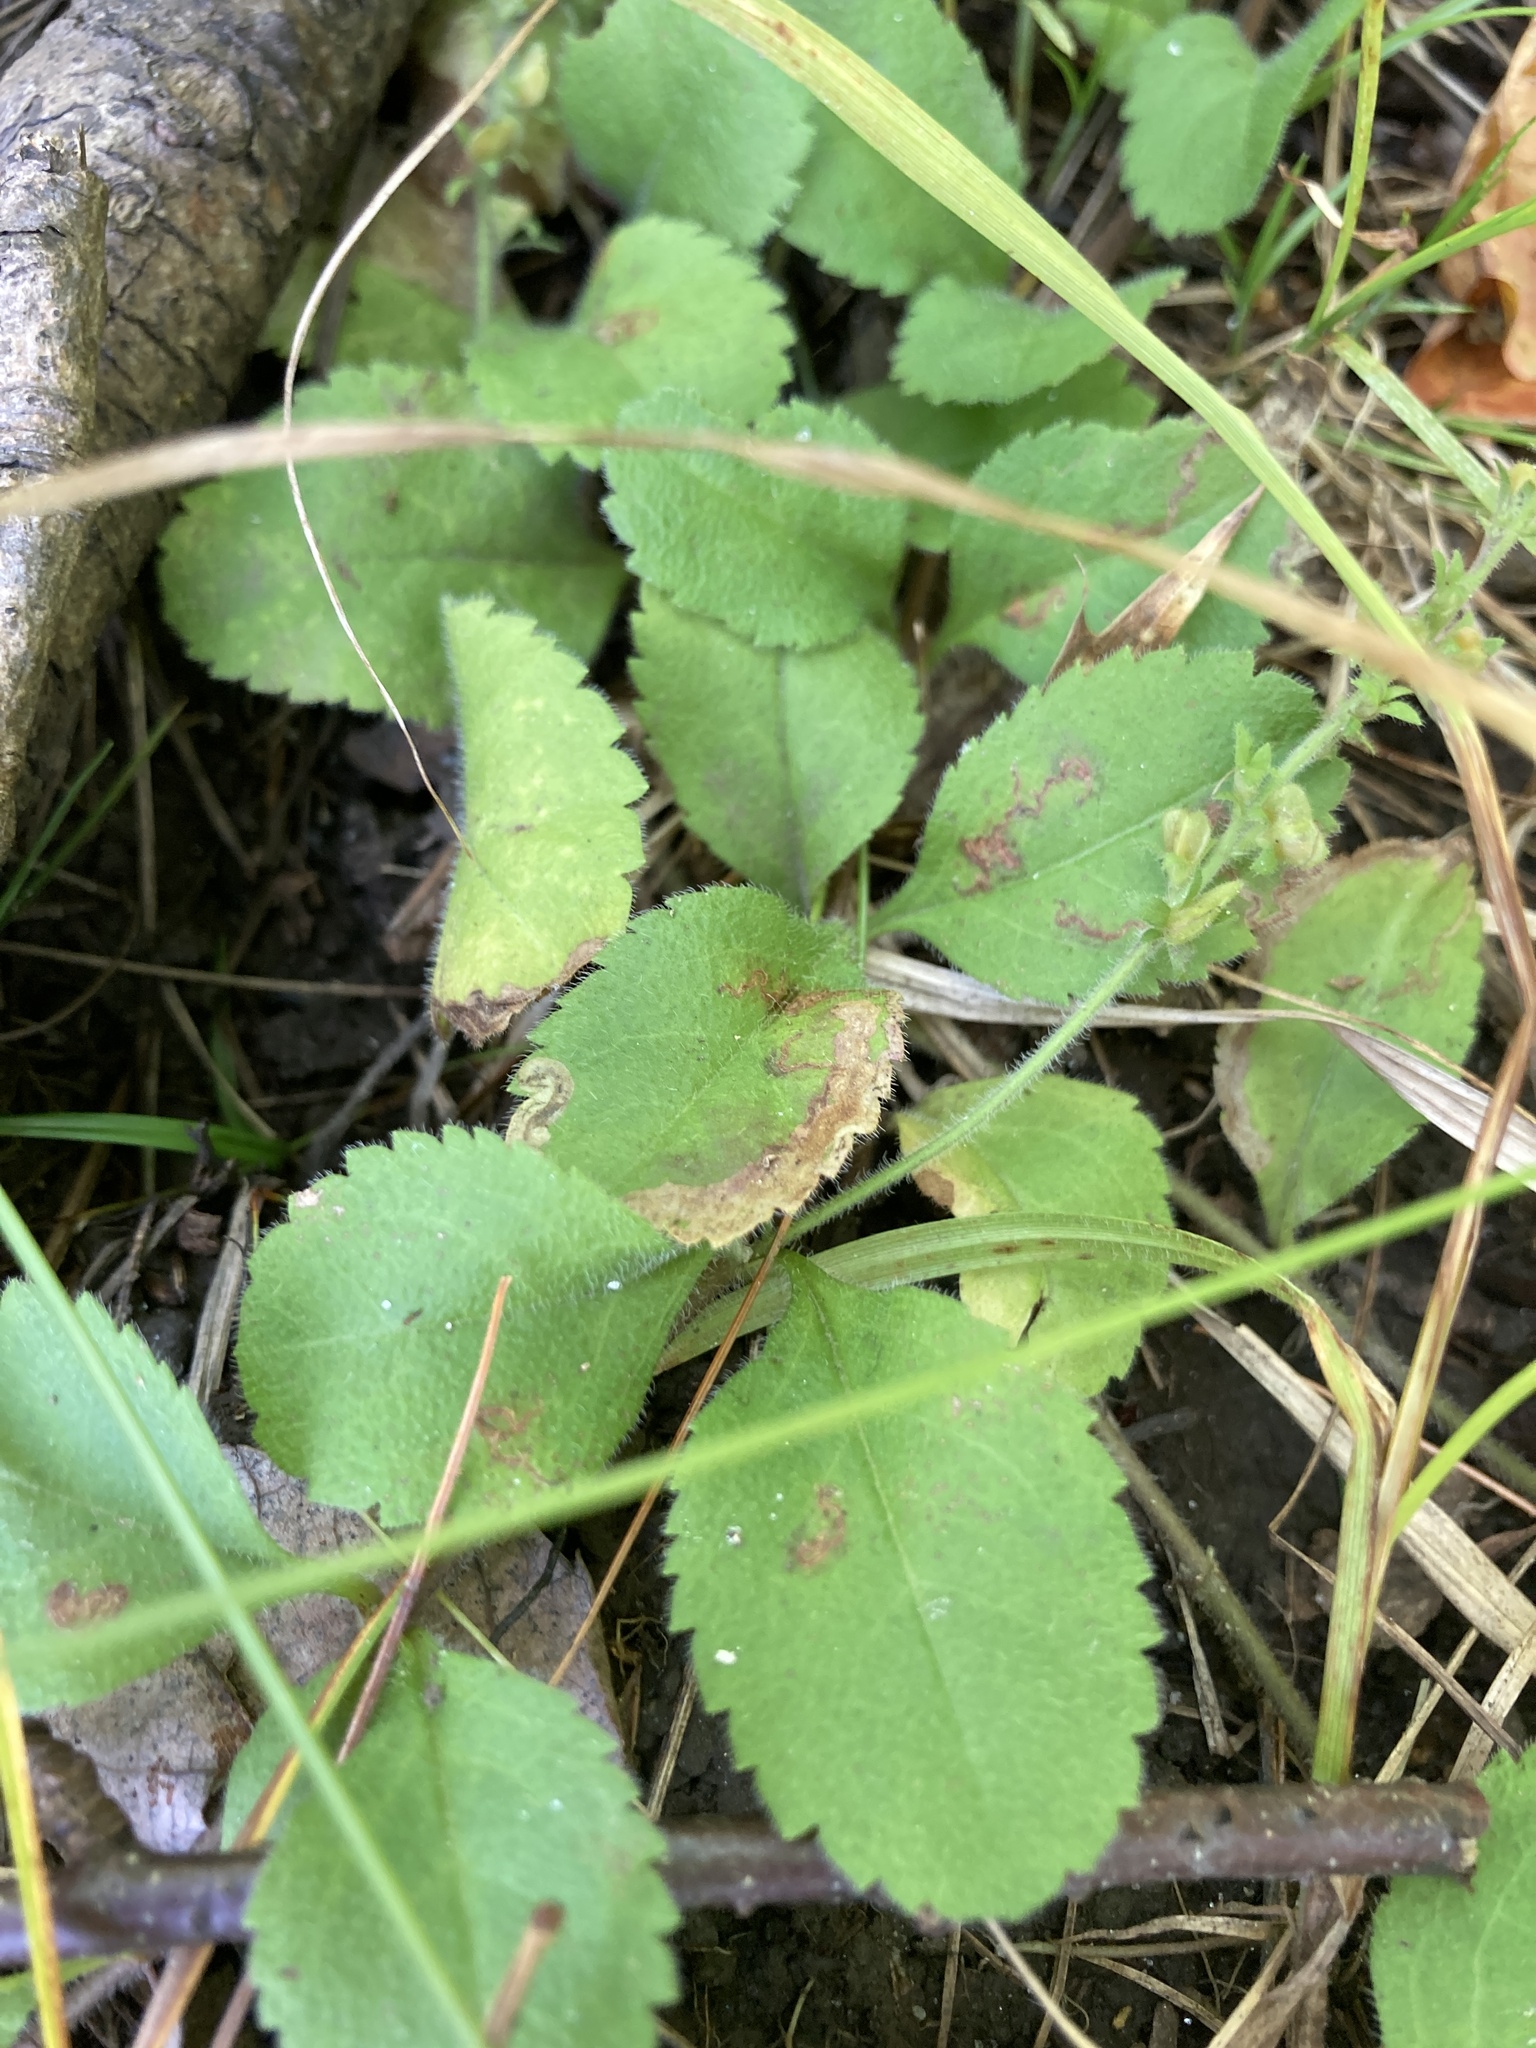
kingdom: Plantae
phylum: Tracheophyta
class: Magnoliopsida
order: Lamiales
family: Plantaginaceae
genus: Veronica
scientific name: Veronica officinalis
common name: Common speedwell
